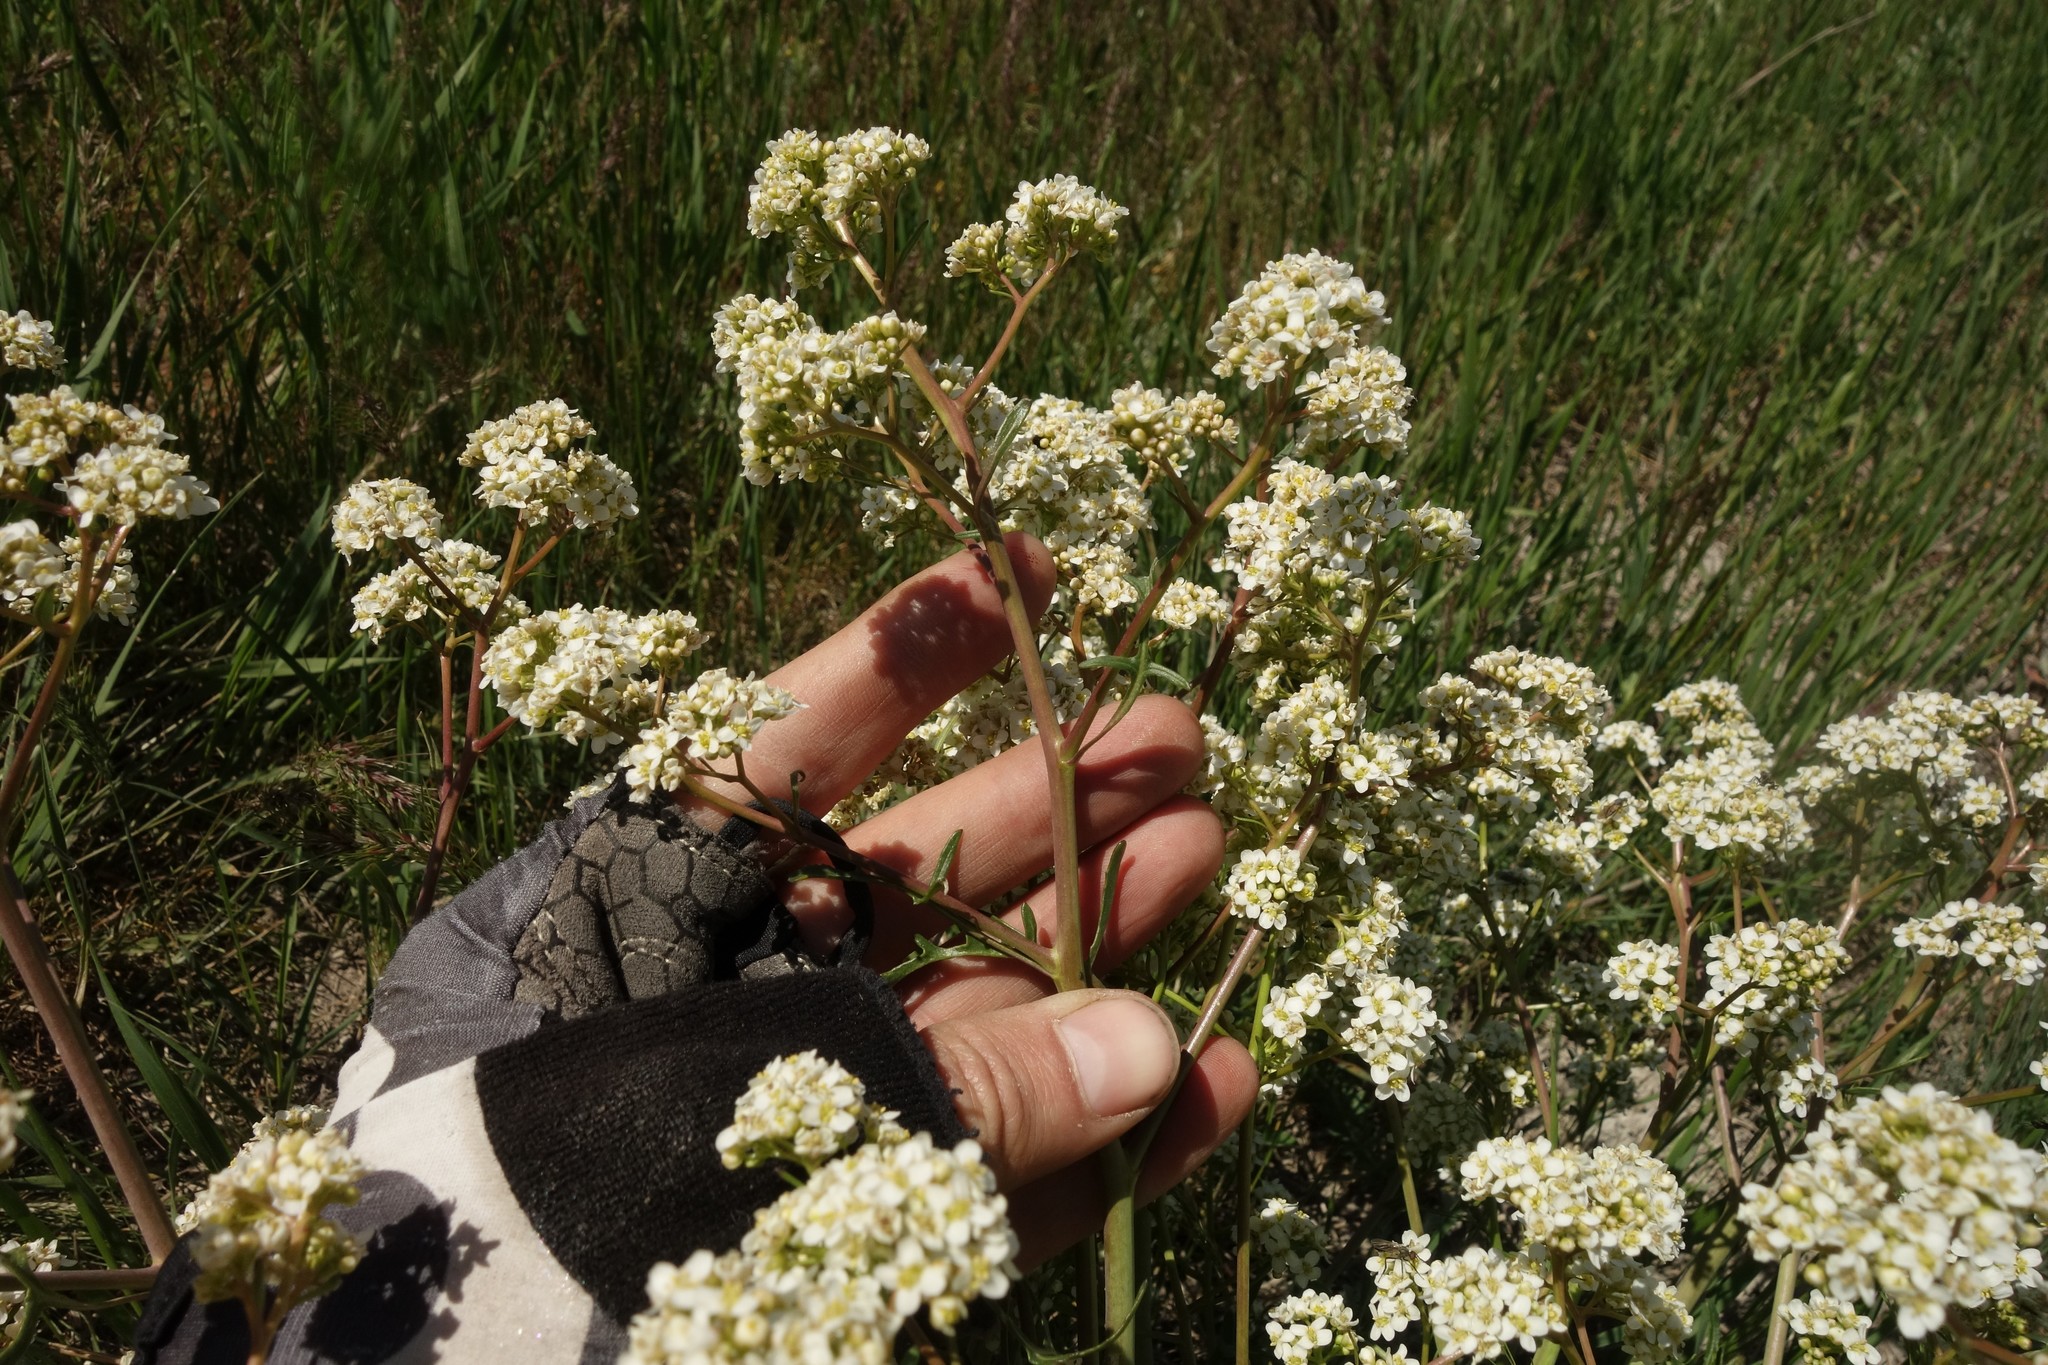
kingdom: Plantae
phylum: Tracheophyta
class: Magnoliopsida
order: Brassicales
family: Brassicaceae
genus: Crambe
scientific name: Crambe tataria
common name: Tartarian breadplant
